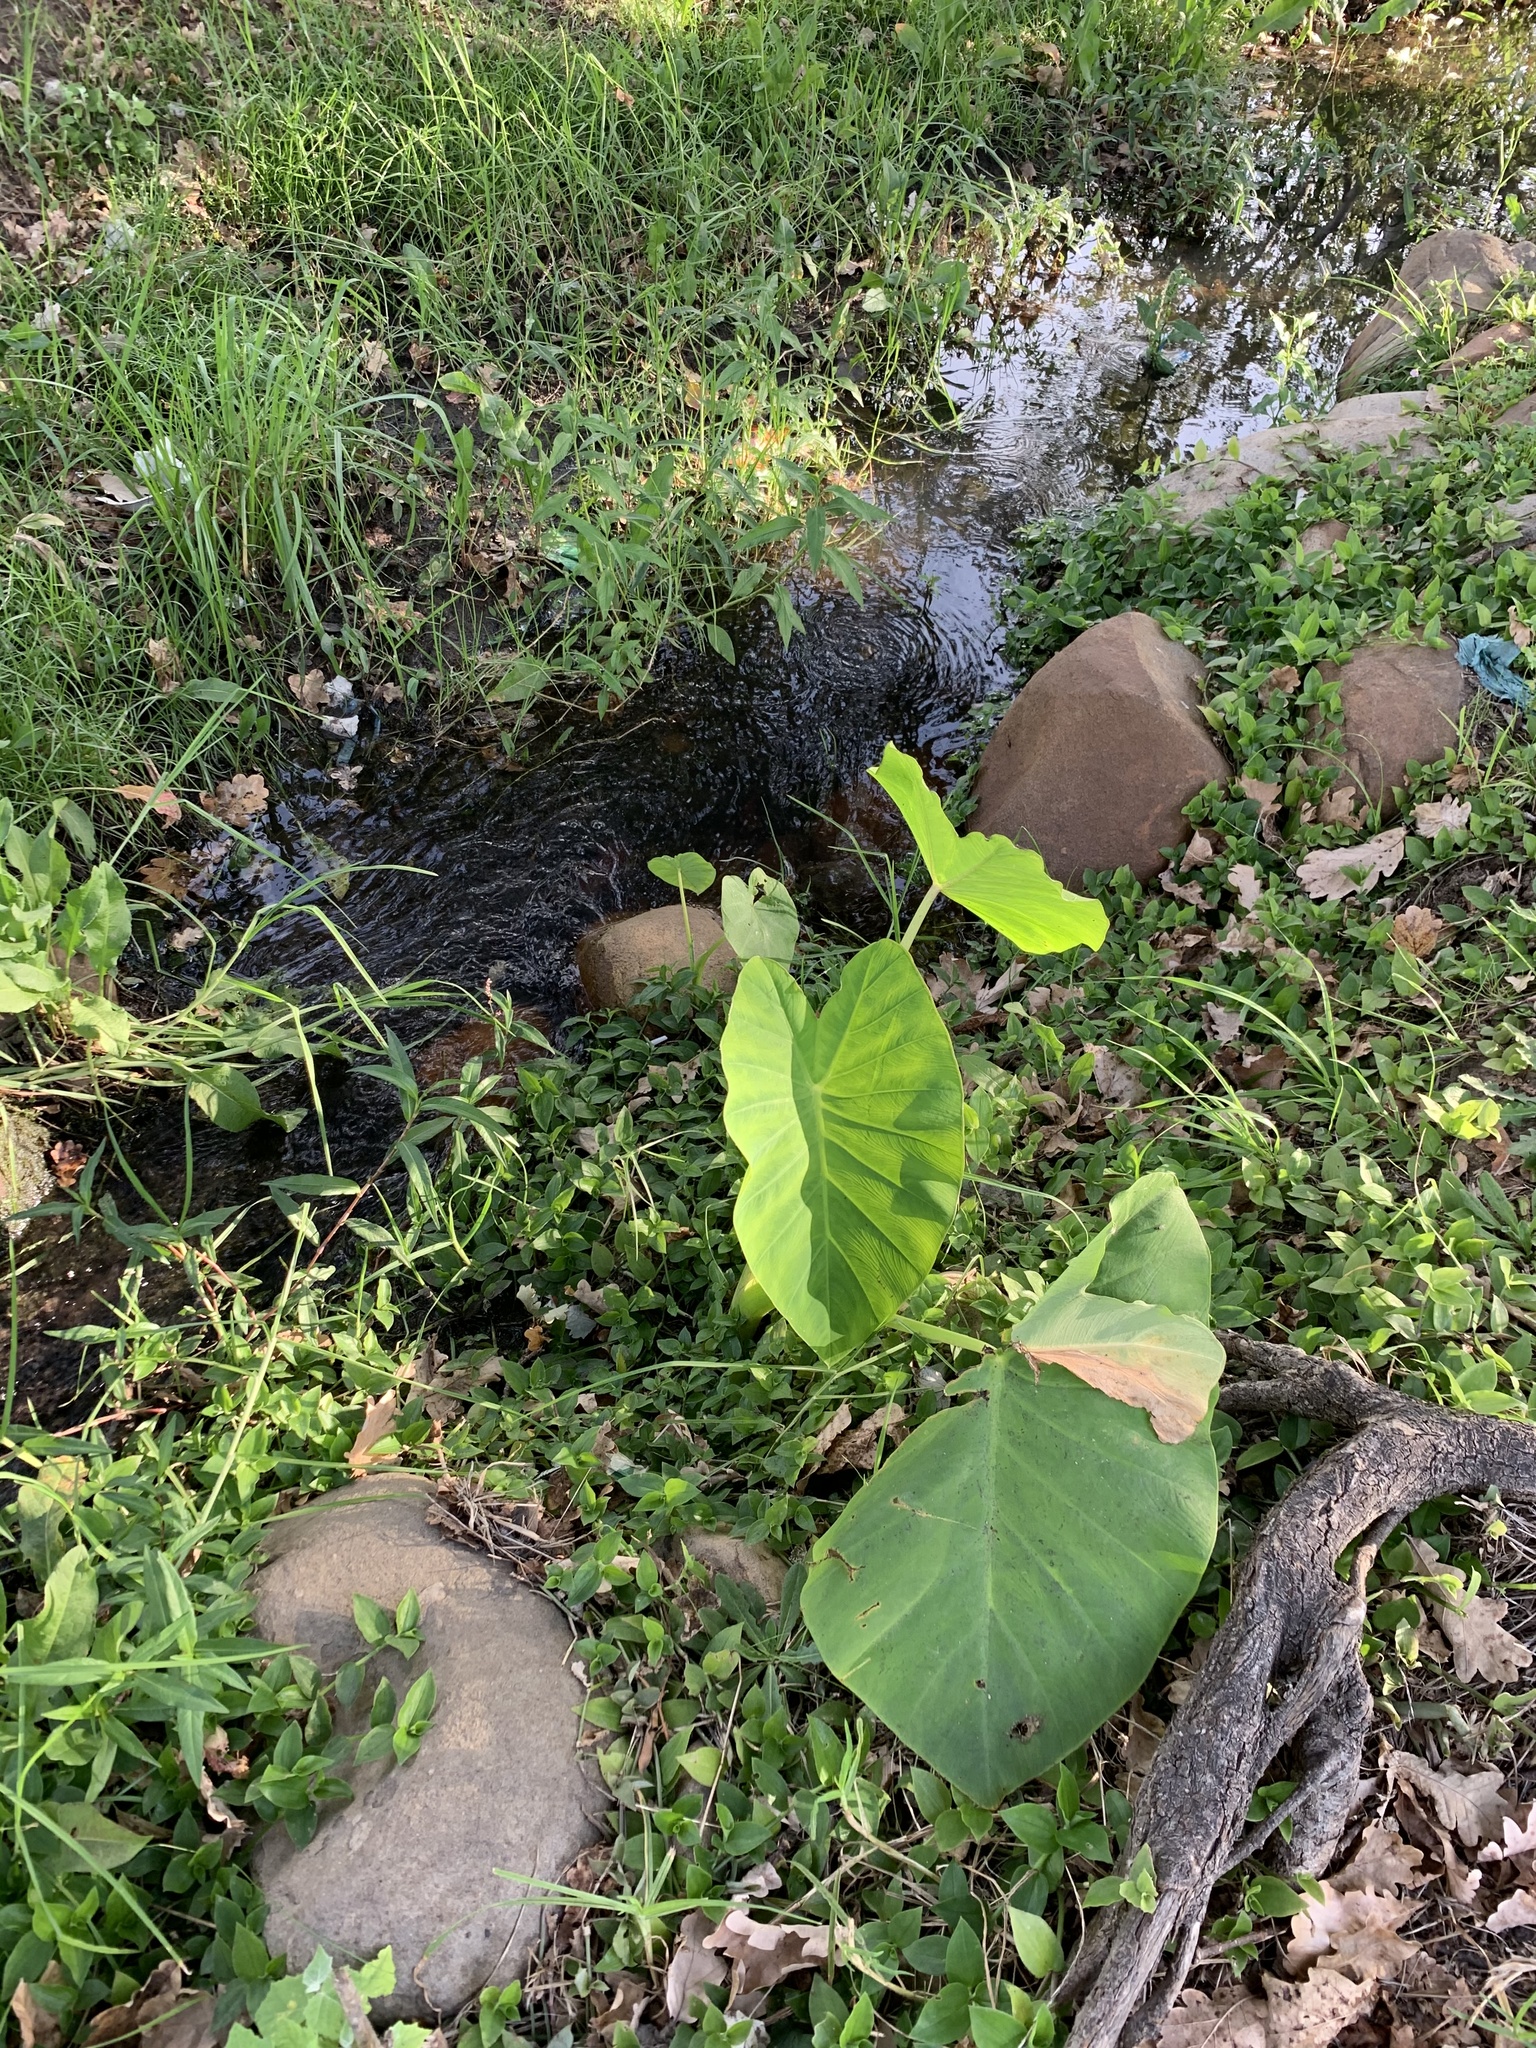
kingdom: Plantae
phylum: Tracheophyta
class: Liliopsida
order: Alismatales
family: Araceae
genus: Colocasia
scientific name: Colocasia esculenta
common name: Taro
